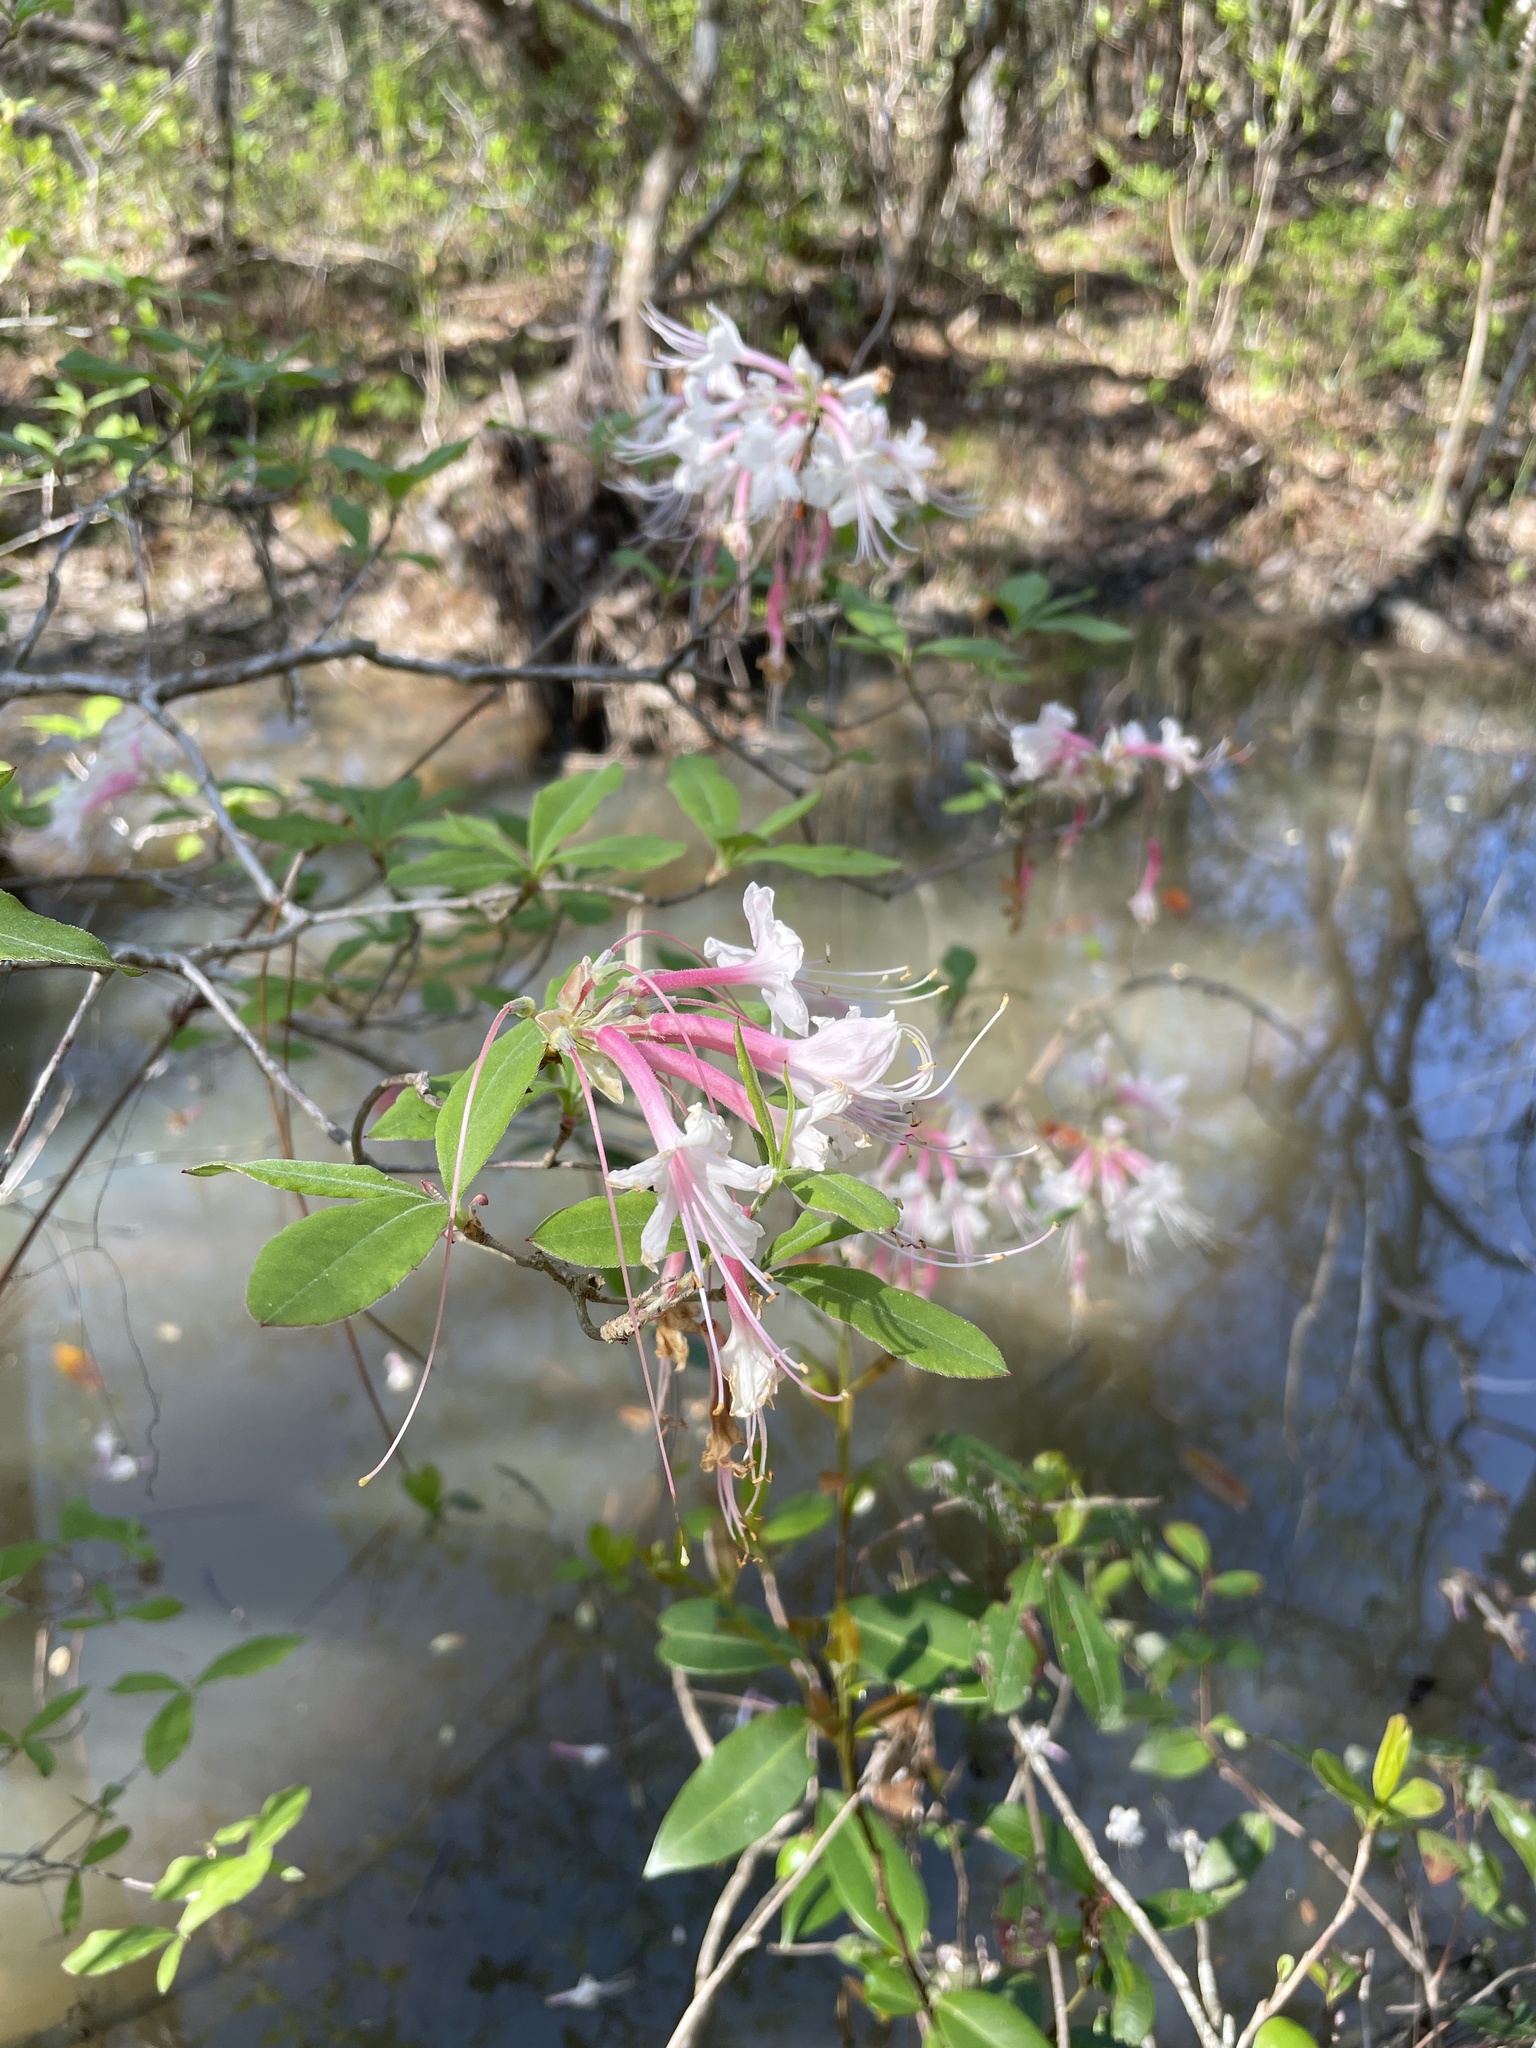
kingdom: Plantae
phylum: Tracheophyta
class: Magnoliopsida
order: Ericales
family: Ericaceae
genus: Rhododendron
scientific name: Rhododendron canescens
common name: Mountain azalea
